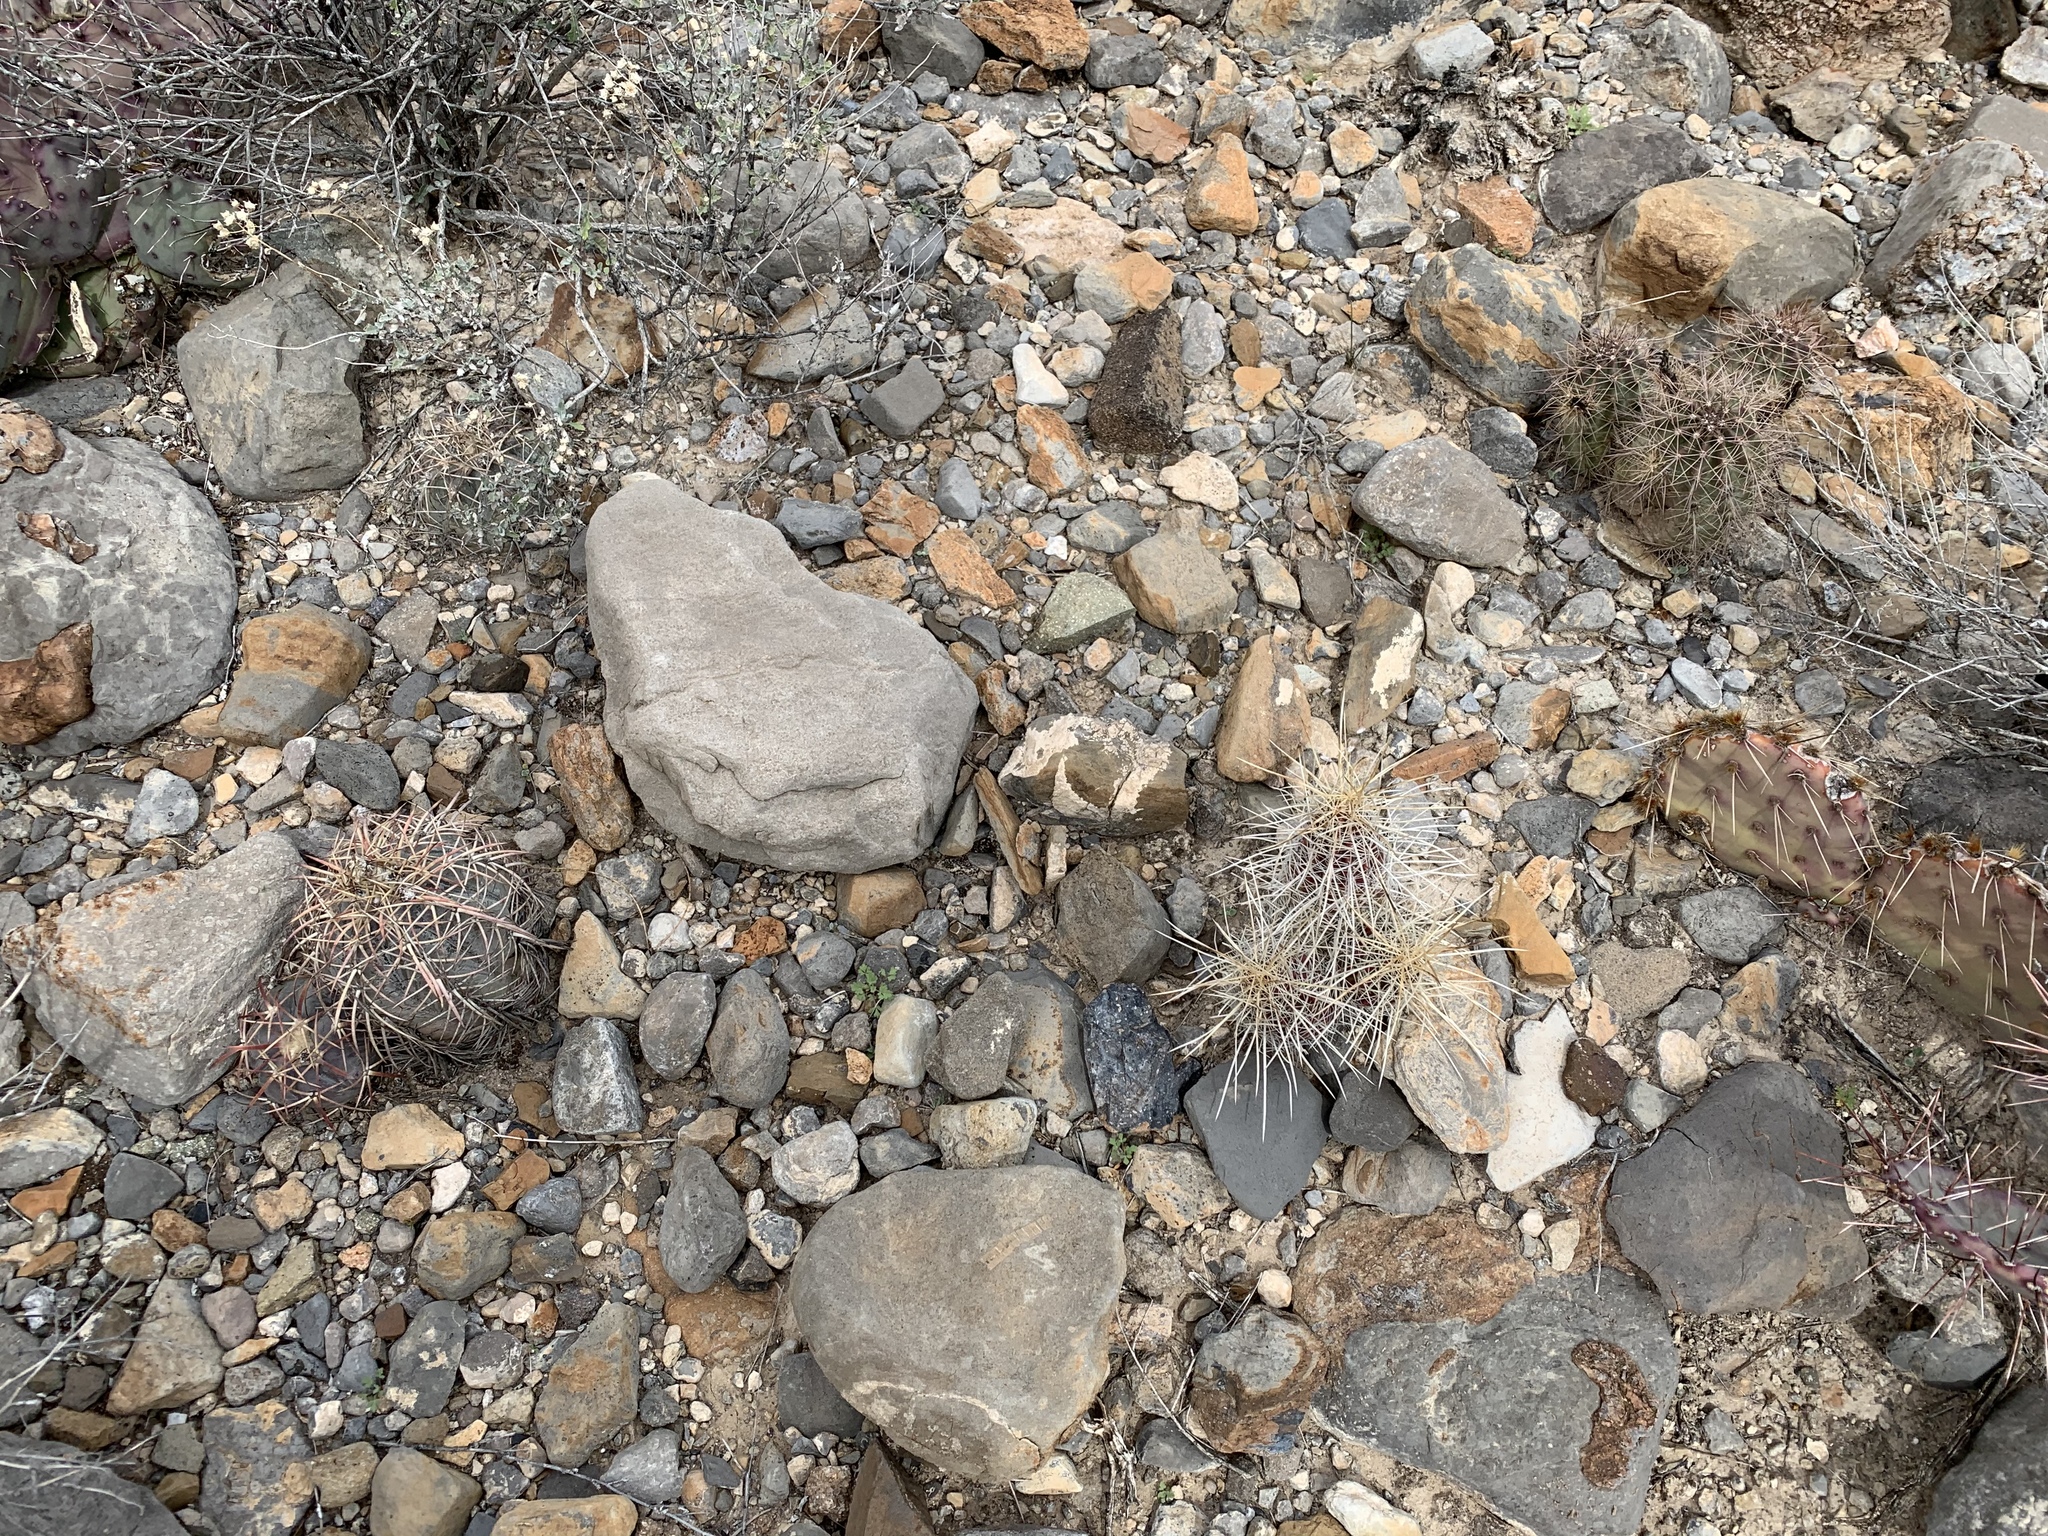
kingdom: Plantae
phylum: Tracheophyta
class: Magnoliopsida
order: Caryophyllales
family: Cactaceae
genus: Echinocereus
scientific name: Echinocereus stramineus
